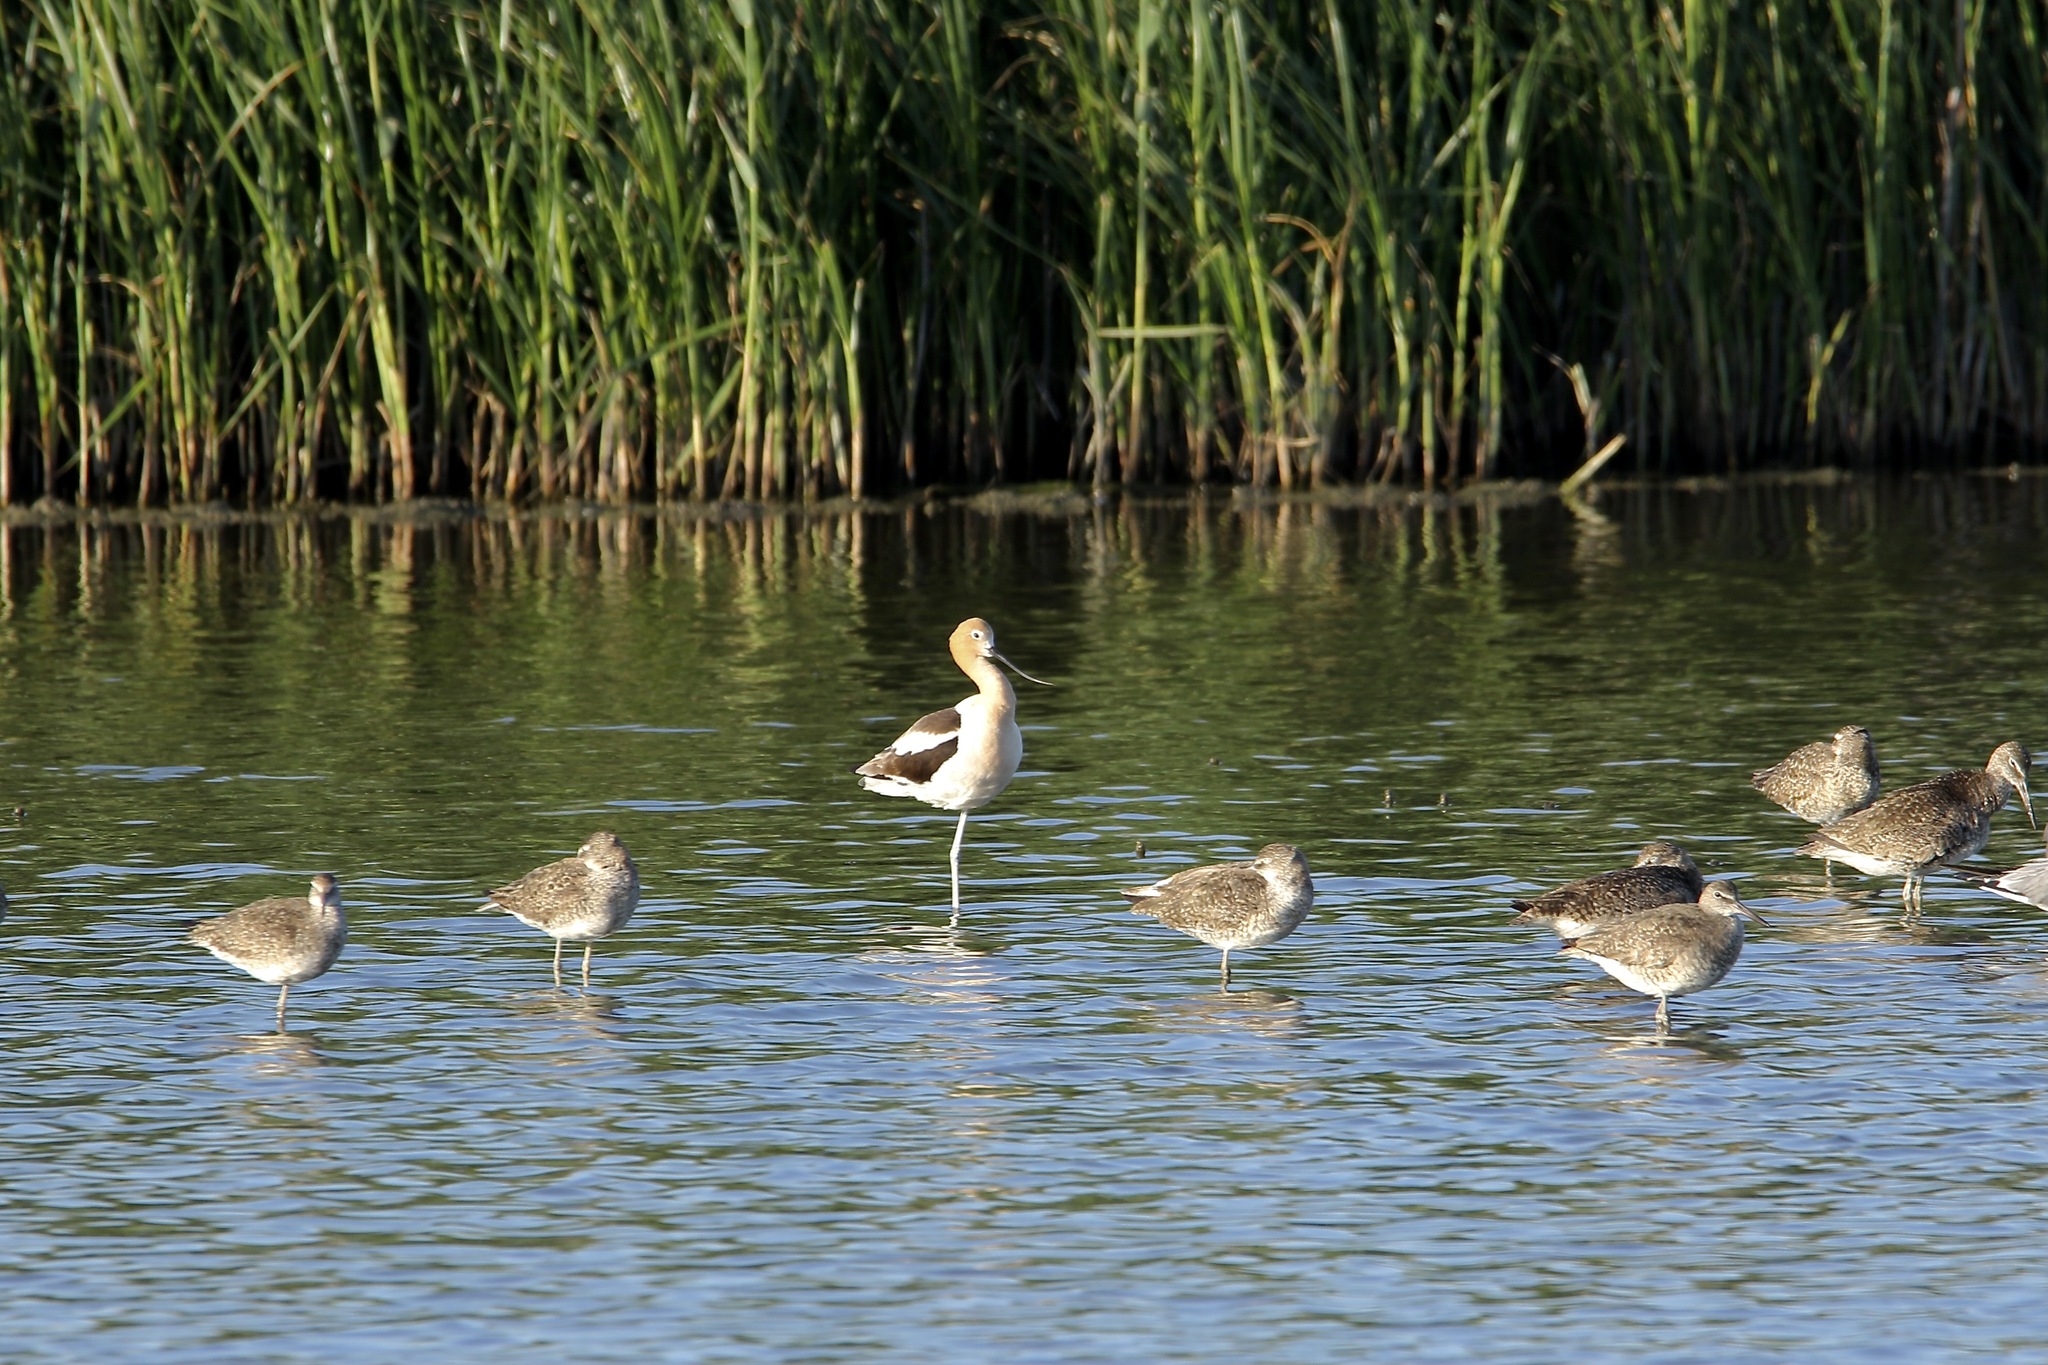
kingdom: Animalia
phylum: Chordata
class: Aves
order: Charadriiformes
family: Recurvirostridae
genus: Recurvirostra
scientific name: Recurvirostra americana
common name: American avocet
